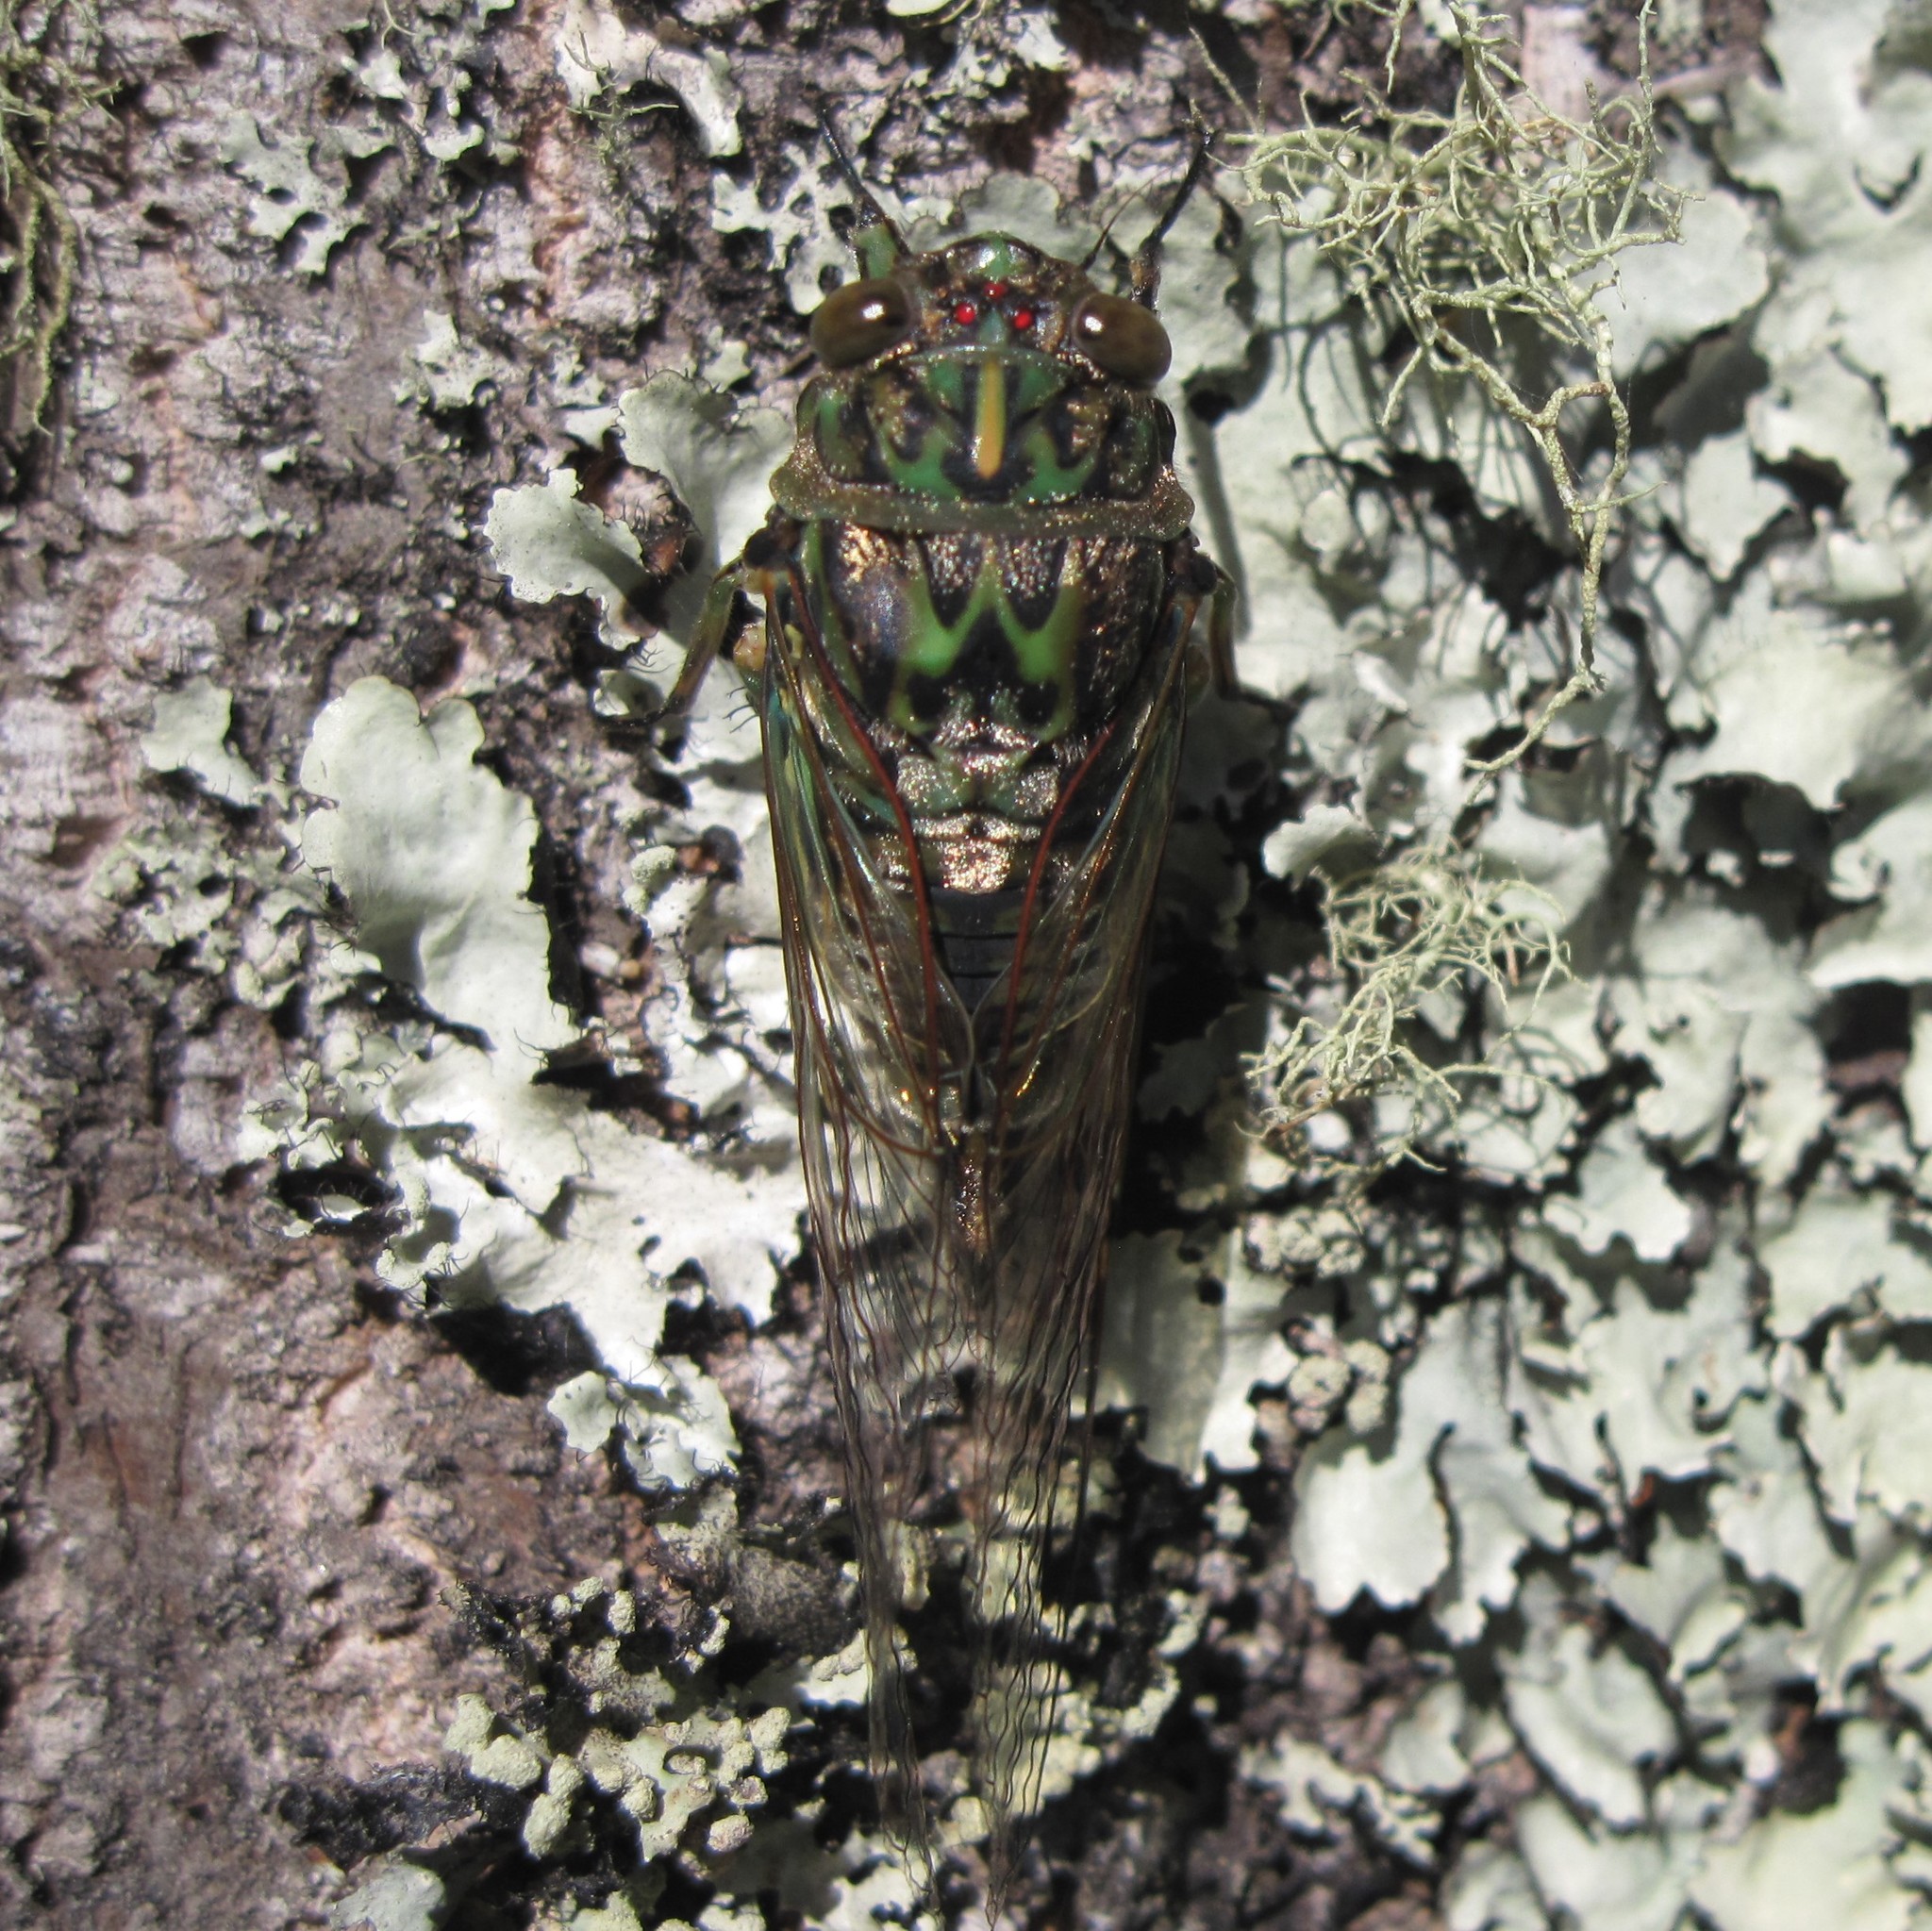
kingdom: Animalia
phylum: Arthropoda
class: Insecta
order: Hemiptera
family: Cicadidae
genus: Amphipsalta
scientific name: Amphipsalta zelandica
